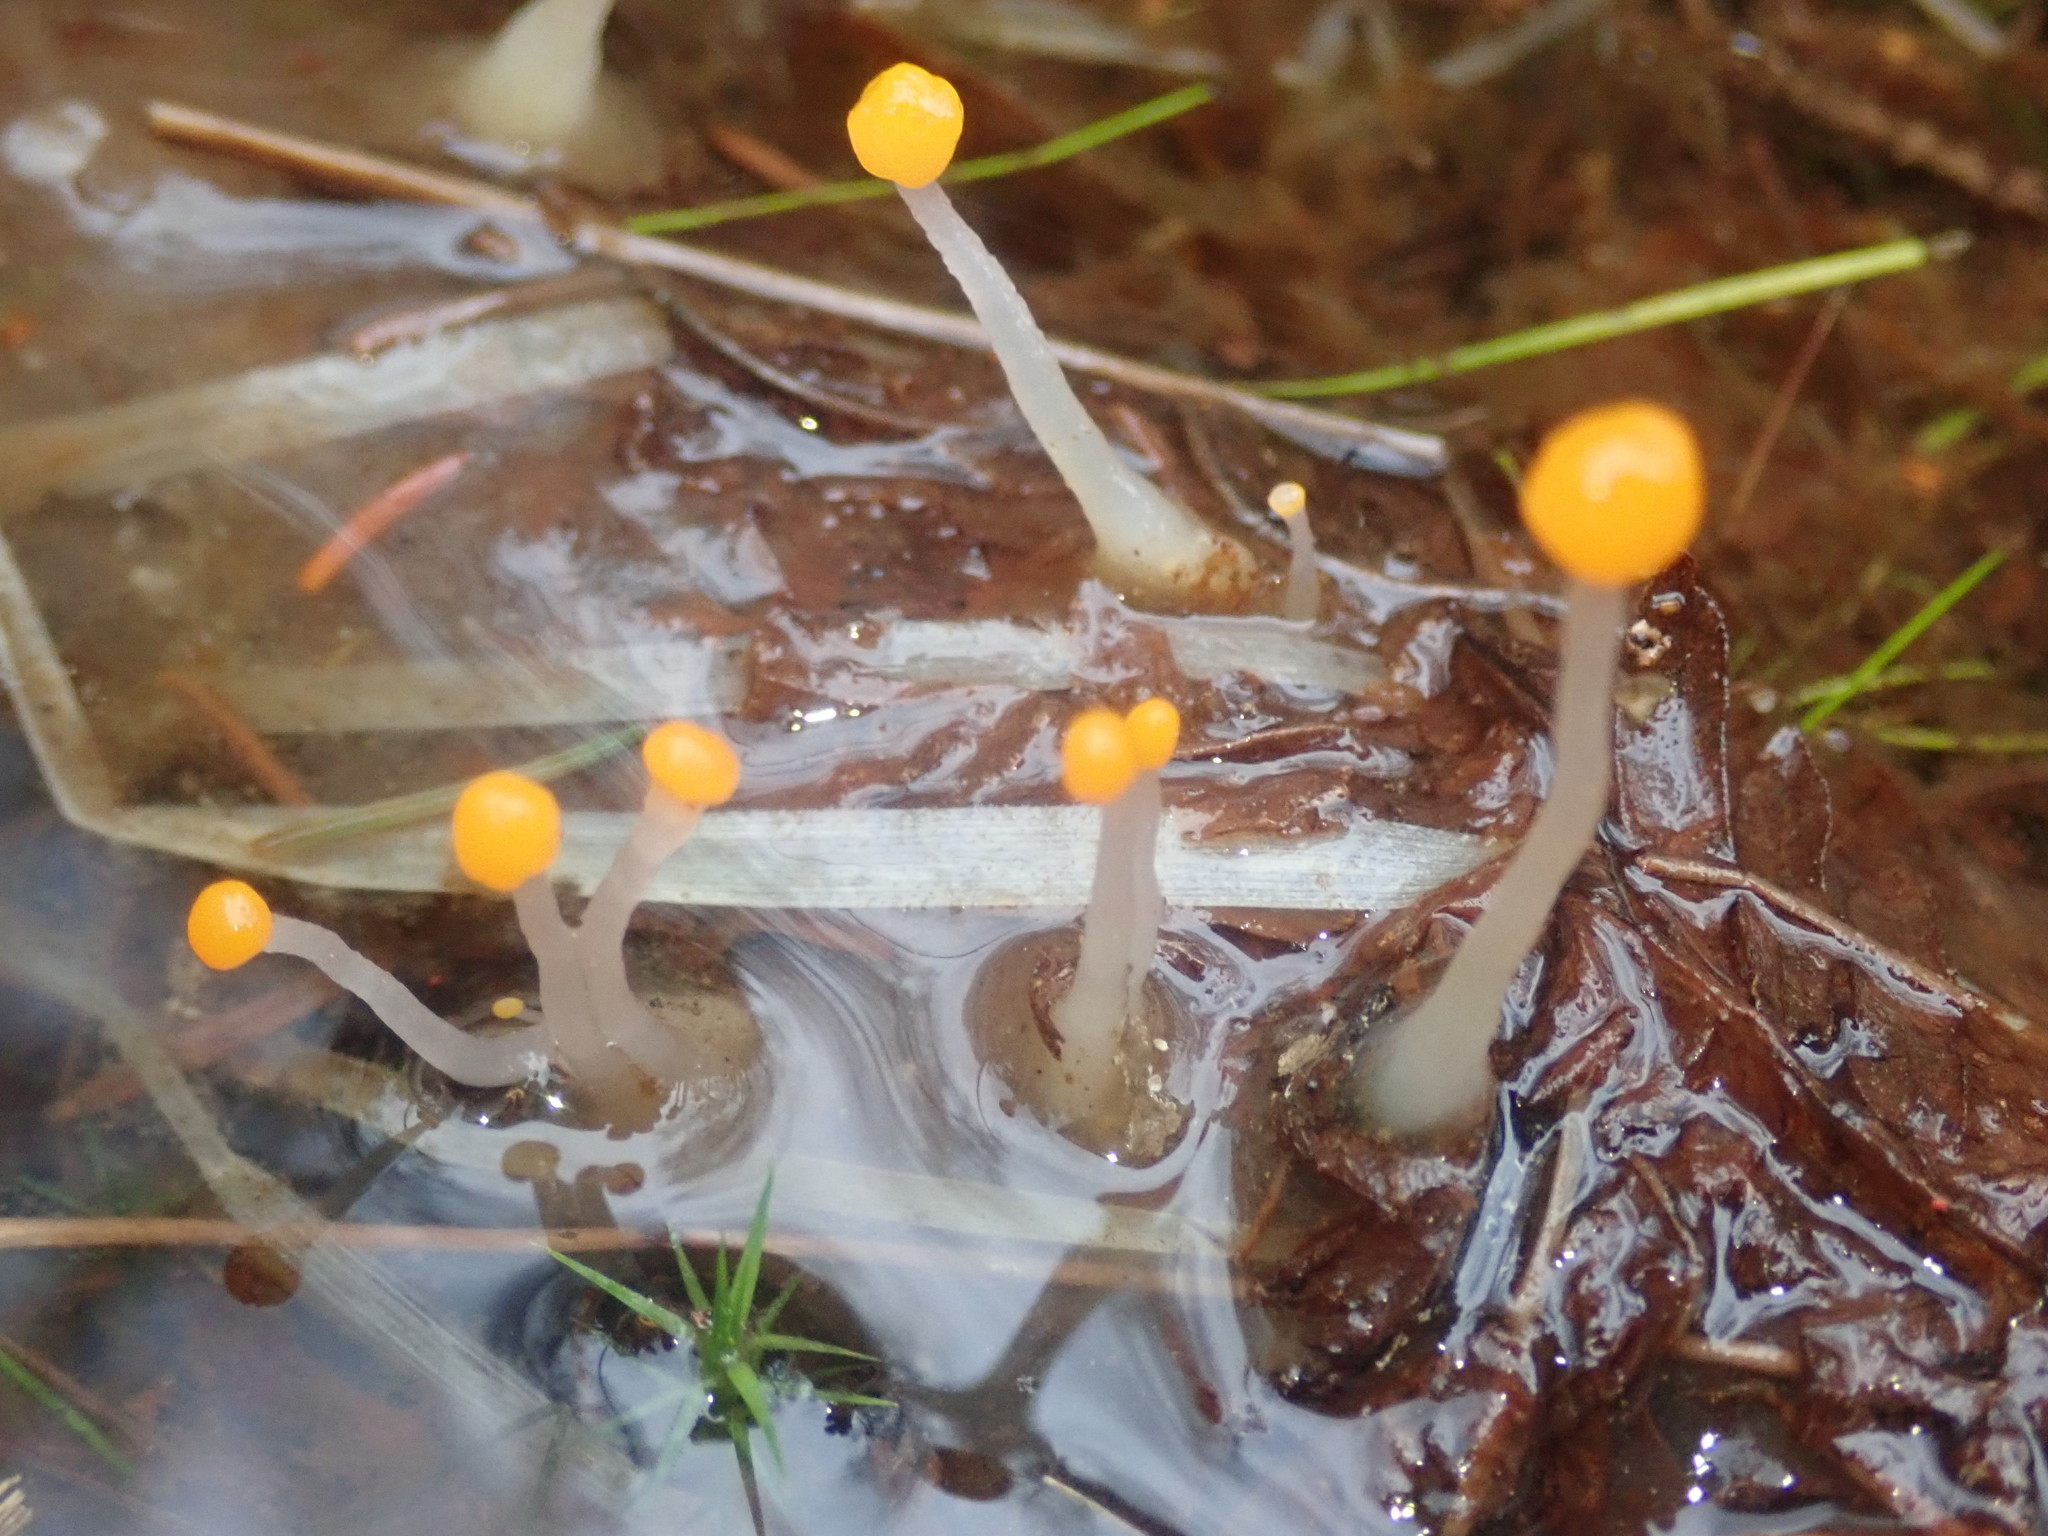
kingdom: Fungi
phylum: Ascomycota
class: Leotiomycetes
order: Helotiales
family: Cenangiaceae
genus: Mitrula
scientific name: Mitrula paludosa
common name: Bog beacon
